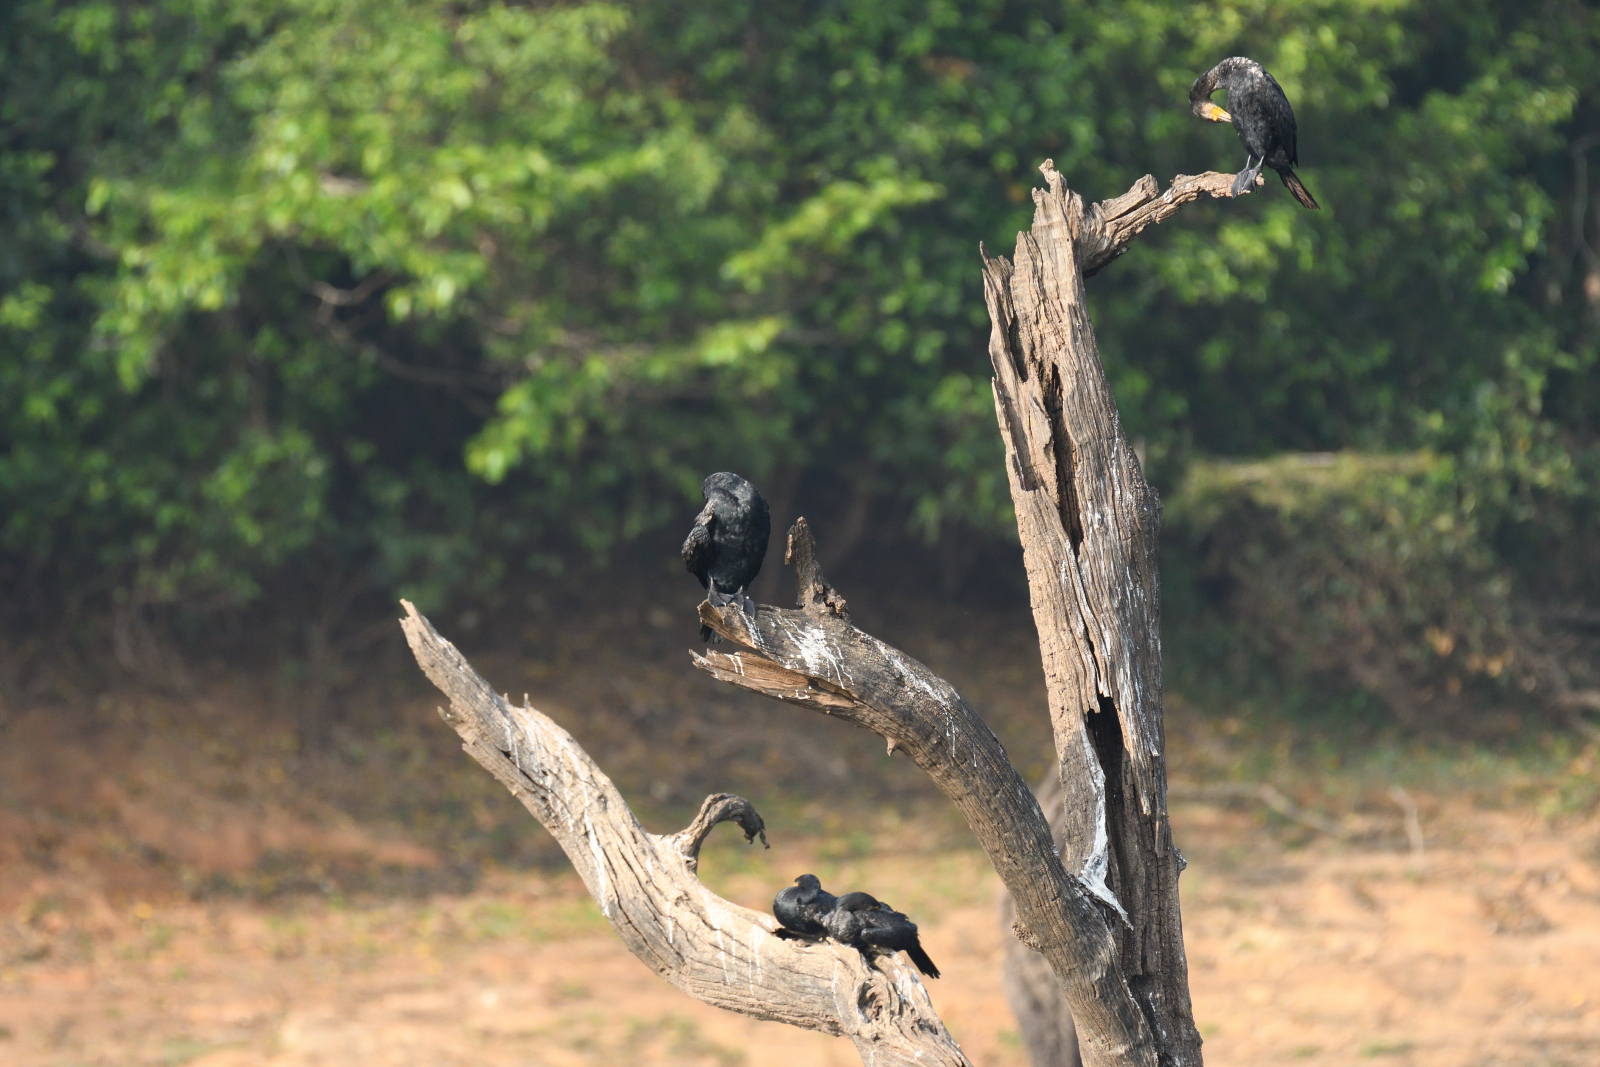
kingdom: Animalia
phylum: Chordata
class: Aves
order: Suliformes
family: Phalacrocoracidae
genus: Phalacrocorax
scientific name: Phalacrocorax carbo
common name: Great cormorant
